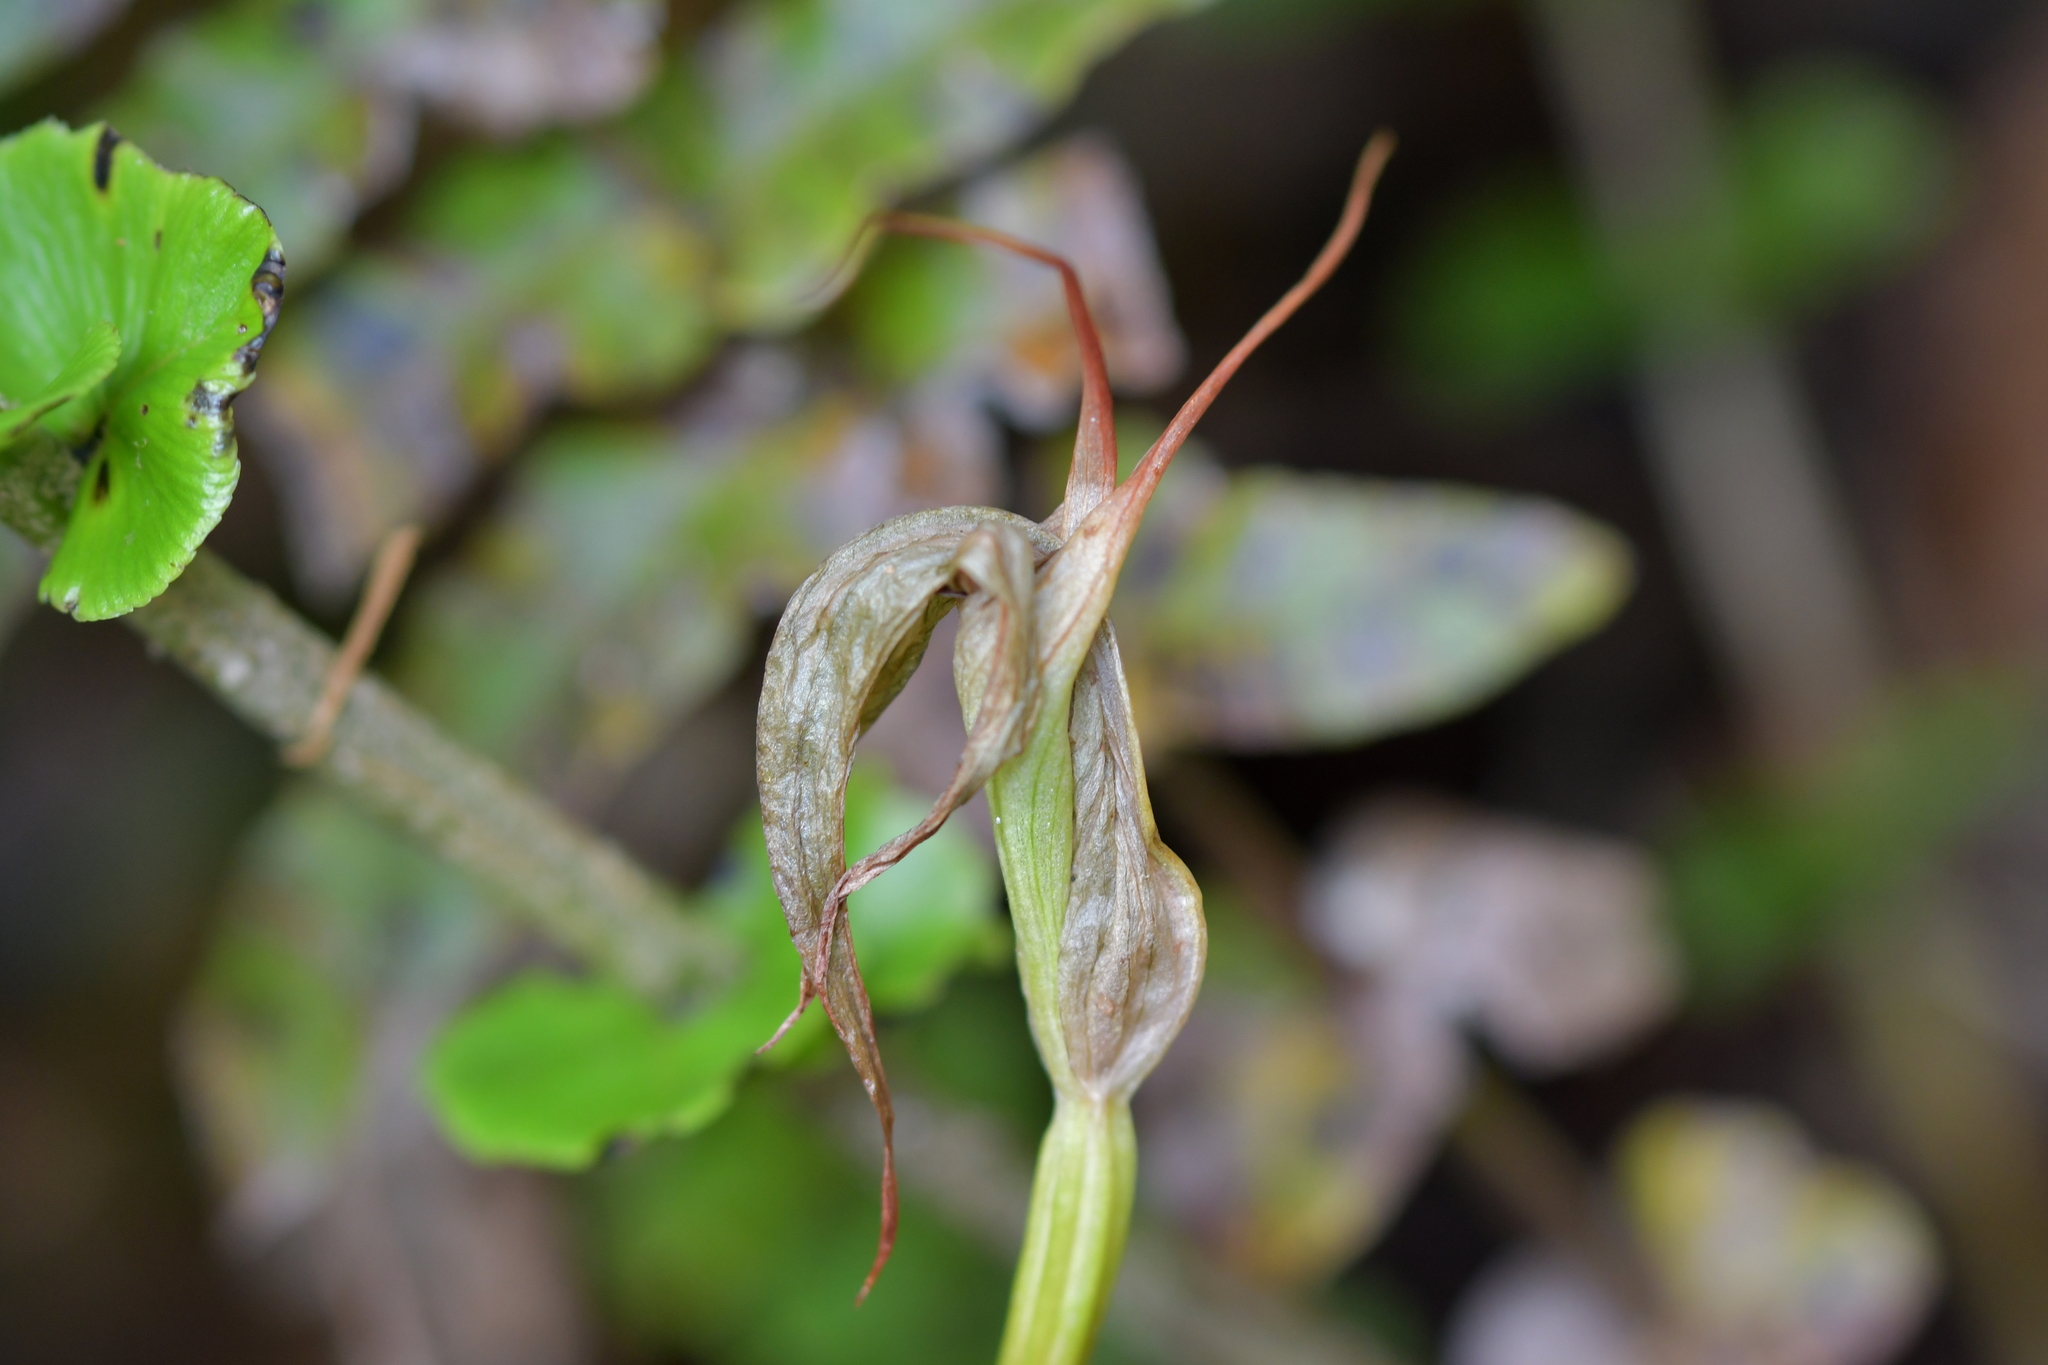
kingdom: Plantae
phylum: Tracheophyta
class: Liliopsida
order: Asparagales
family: Orchidaceae
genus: Pterostylis
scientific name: Pterostylis banksii
